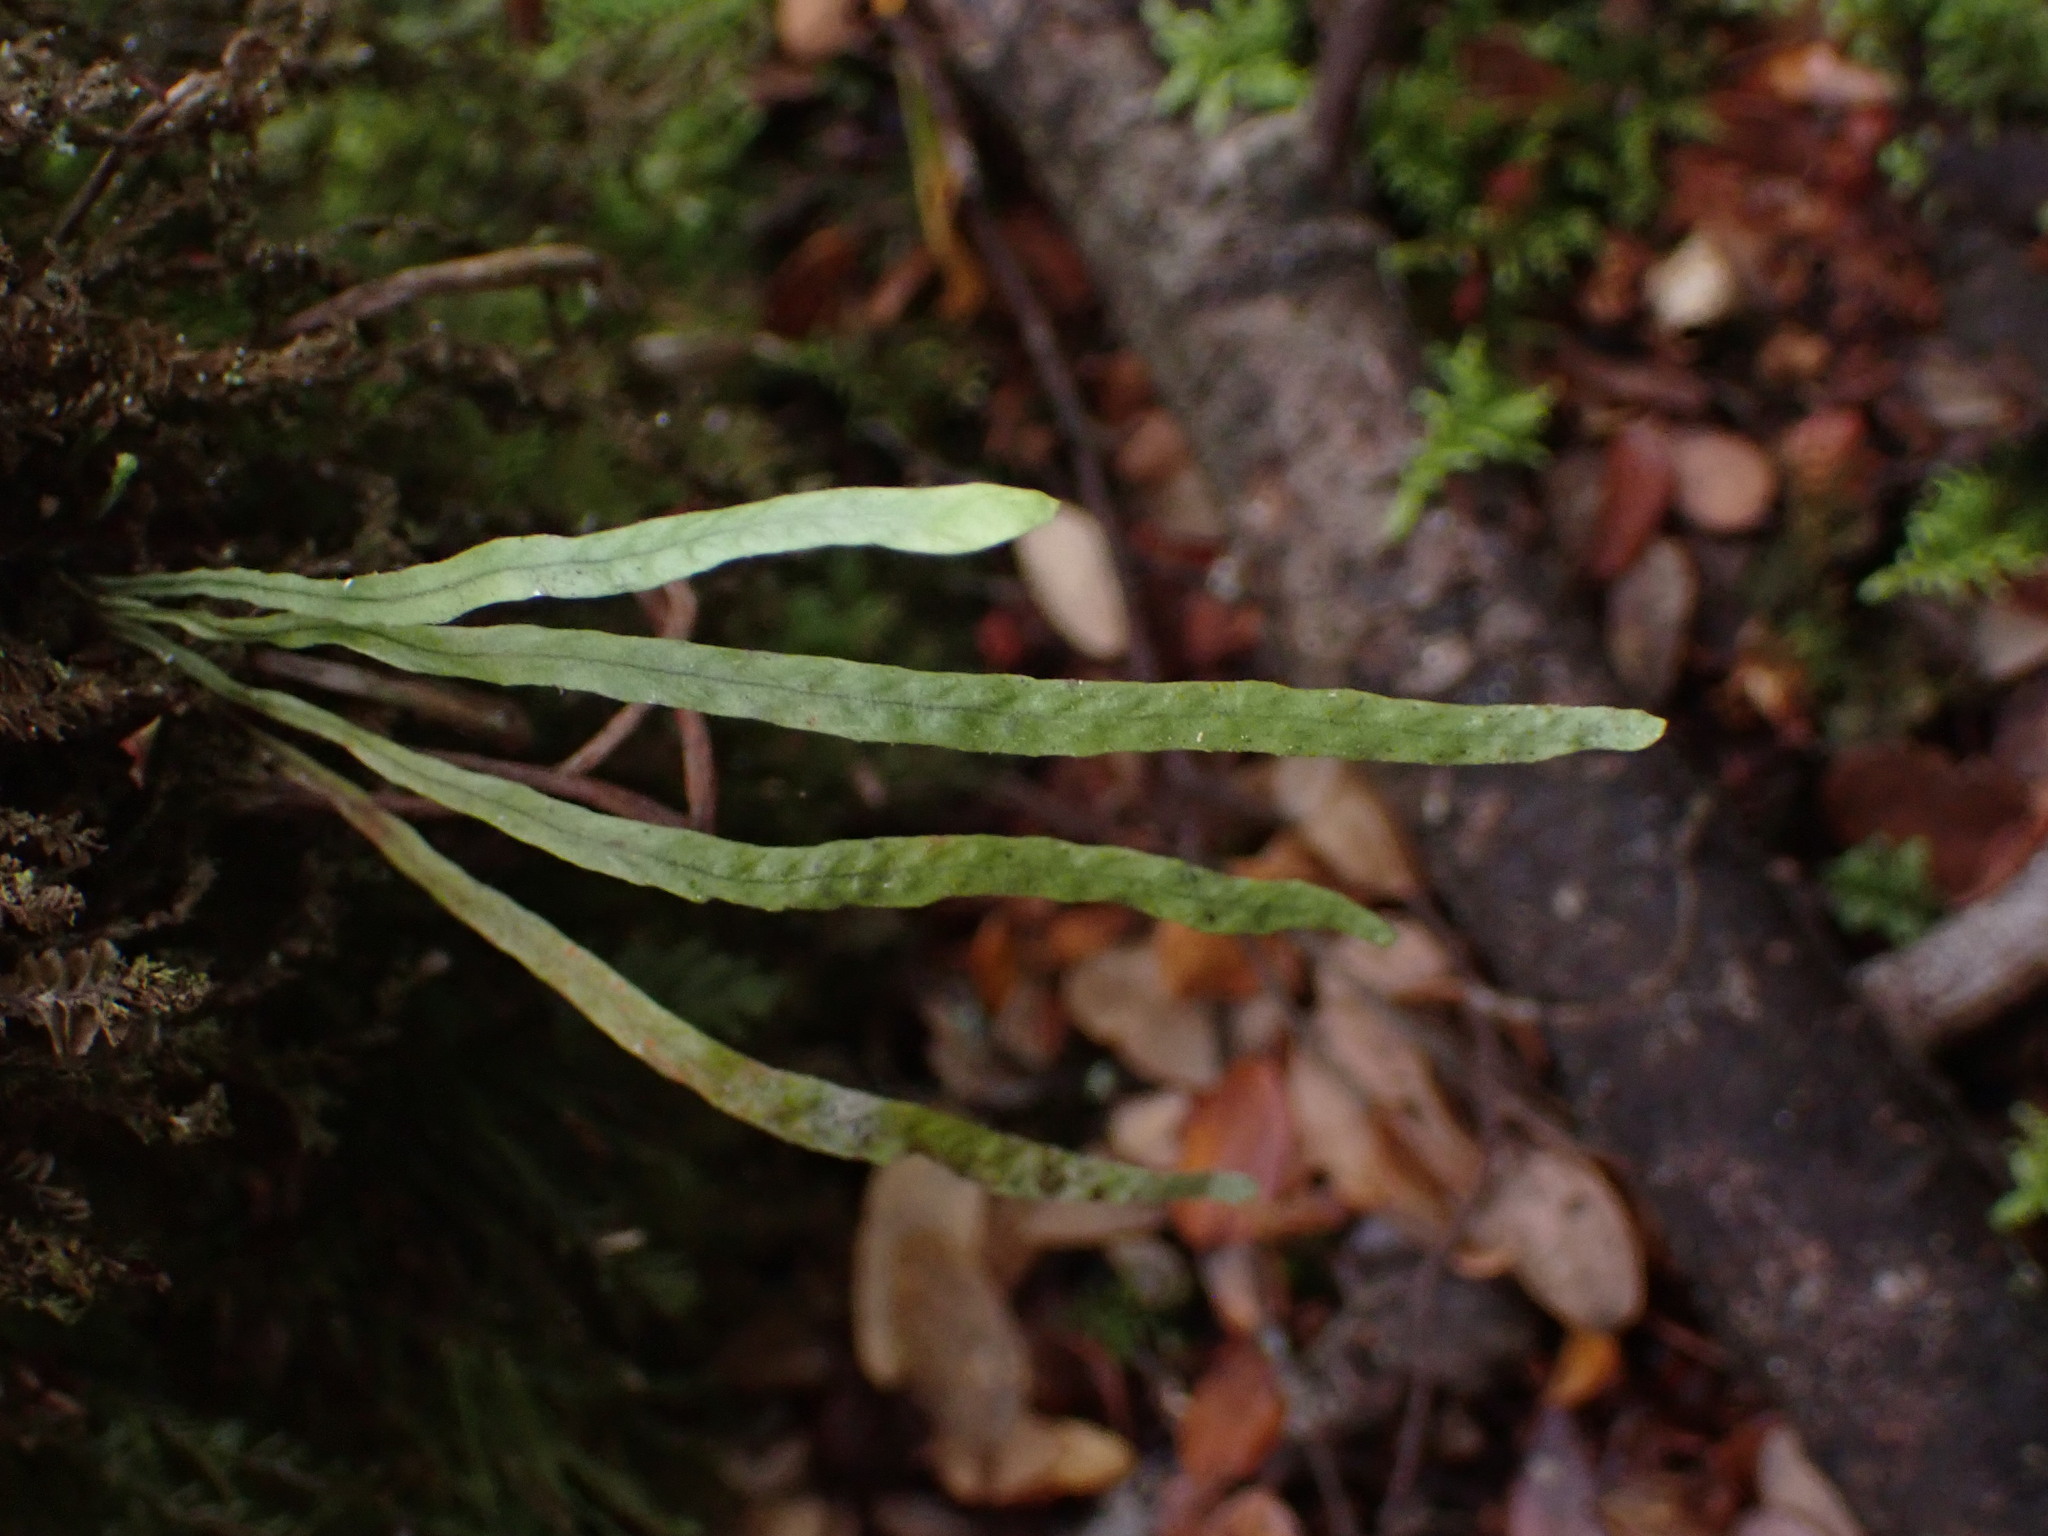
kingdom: Plantae
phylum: Tracheophyta
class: Polypodiopsida
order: Polypodiales
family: Polypodiaceae
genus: Notogrammitis
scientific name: Notogrammitis angustifolia
